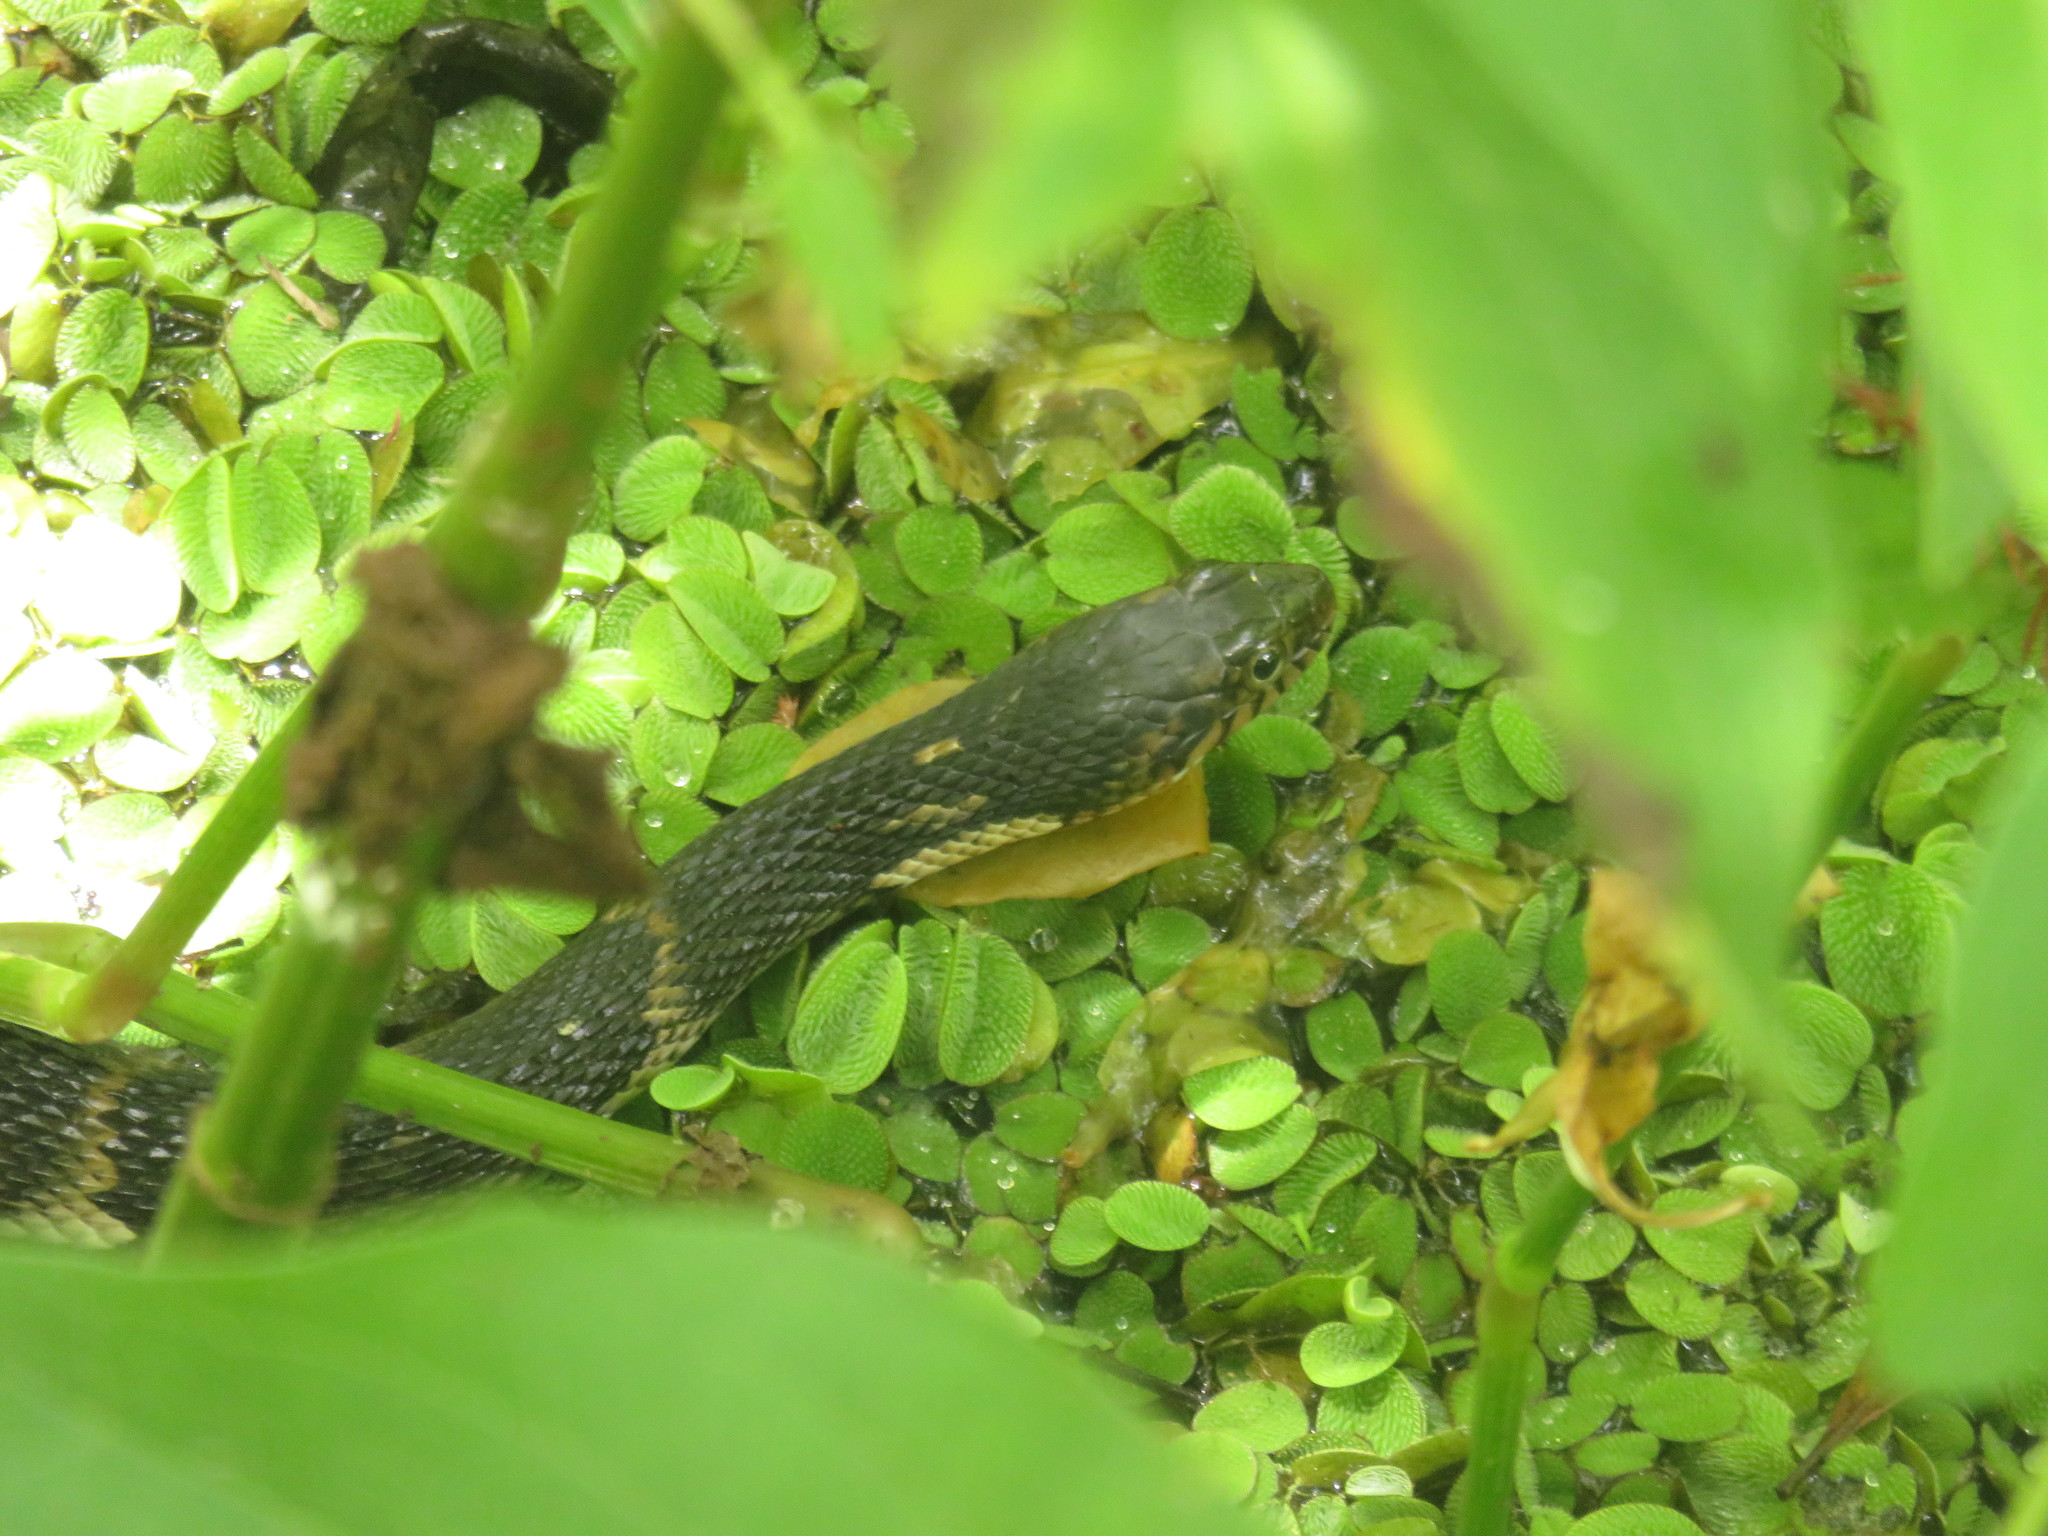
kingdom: Animalia
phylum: Chordata
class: Squamata
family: Colubridae
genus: Nerodia
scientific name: Nerodia fasciata
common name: Southern water snake
